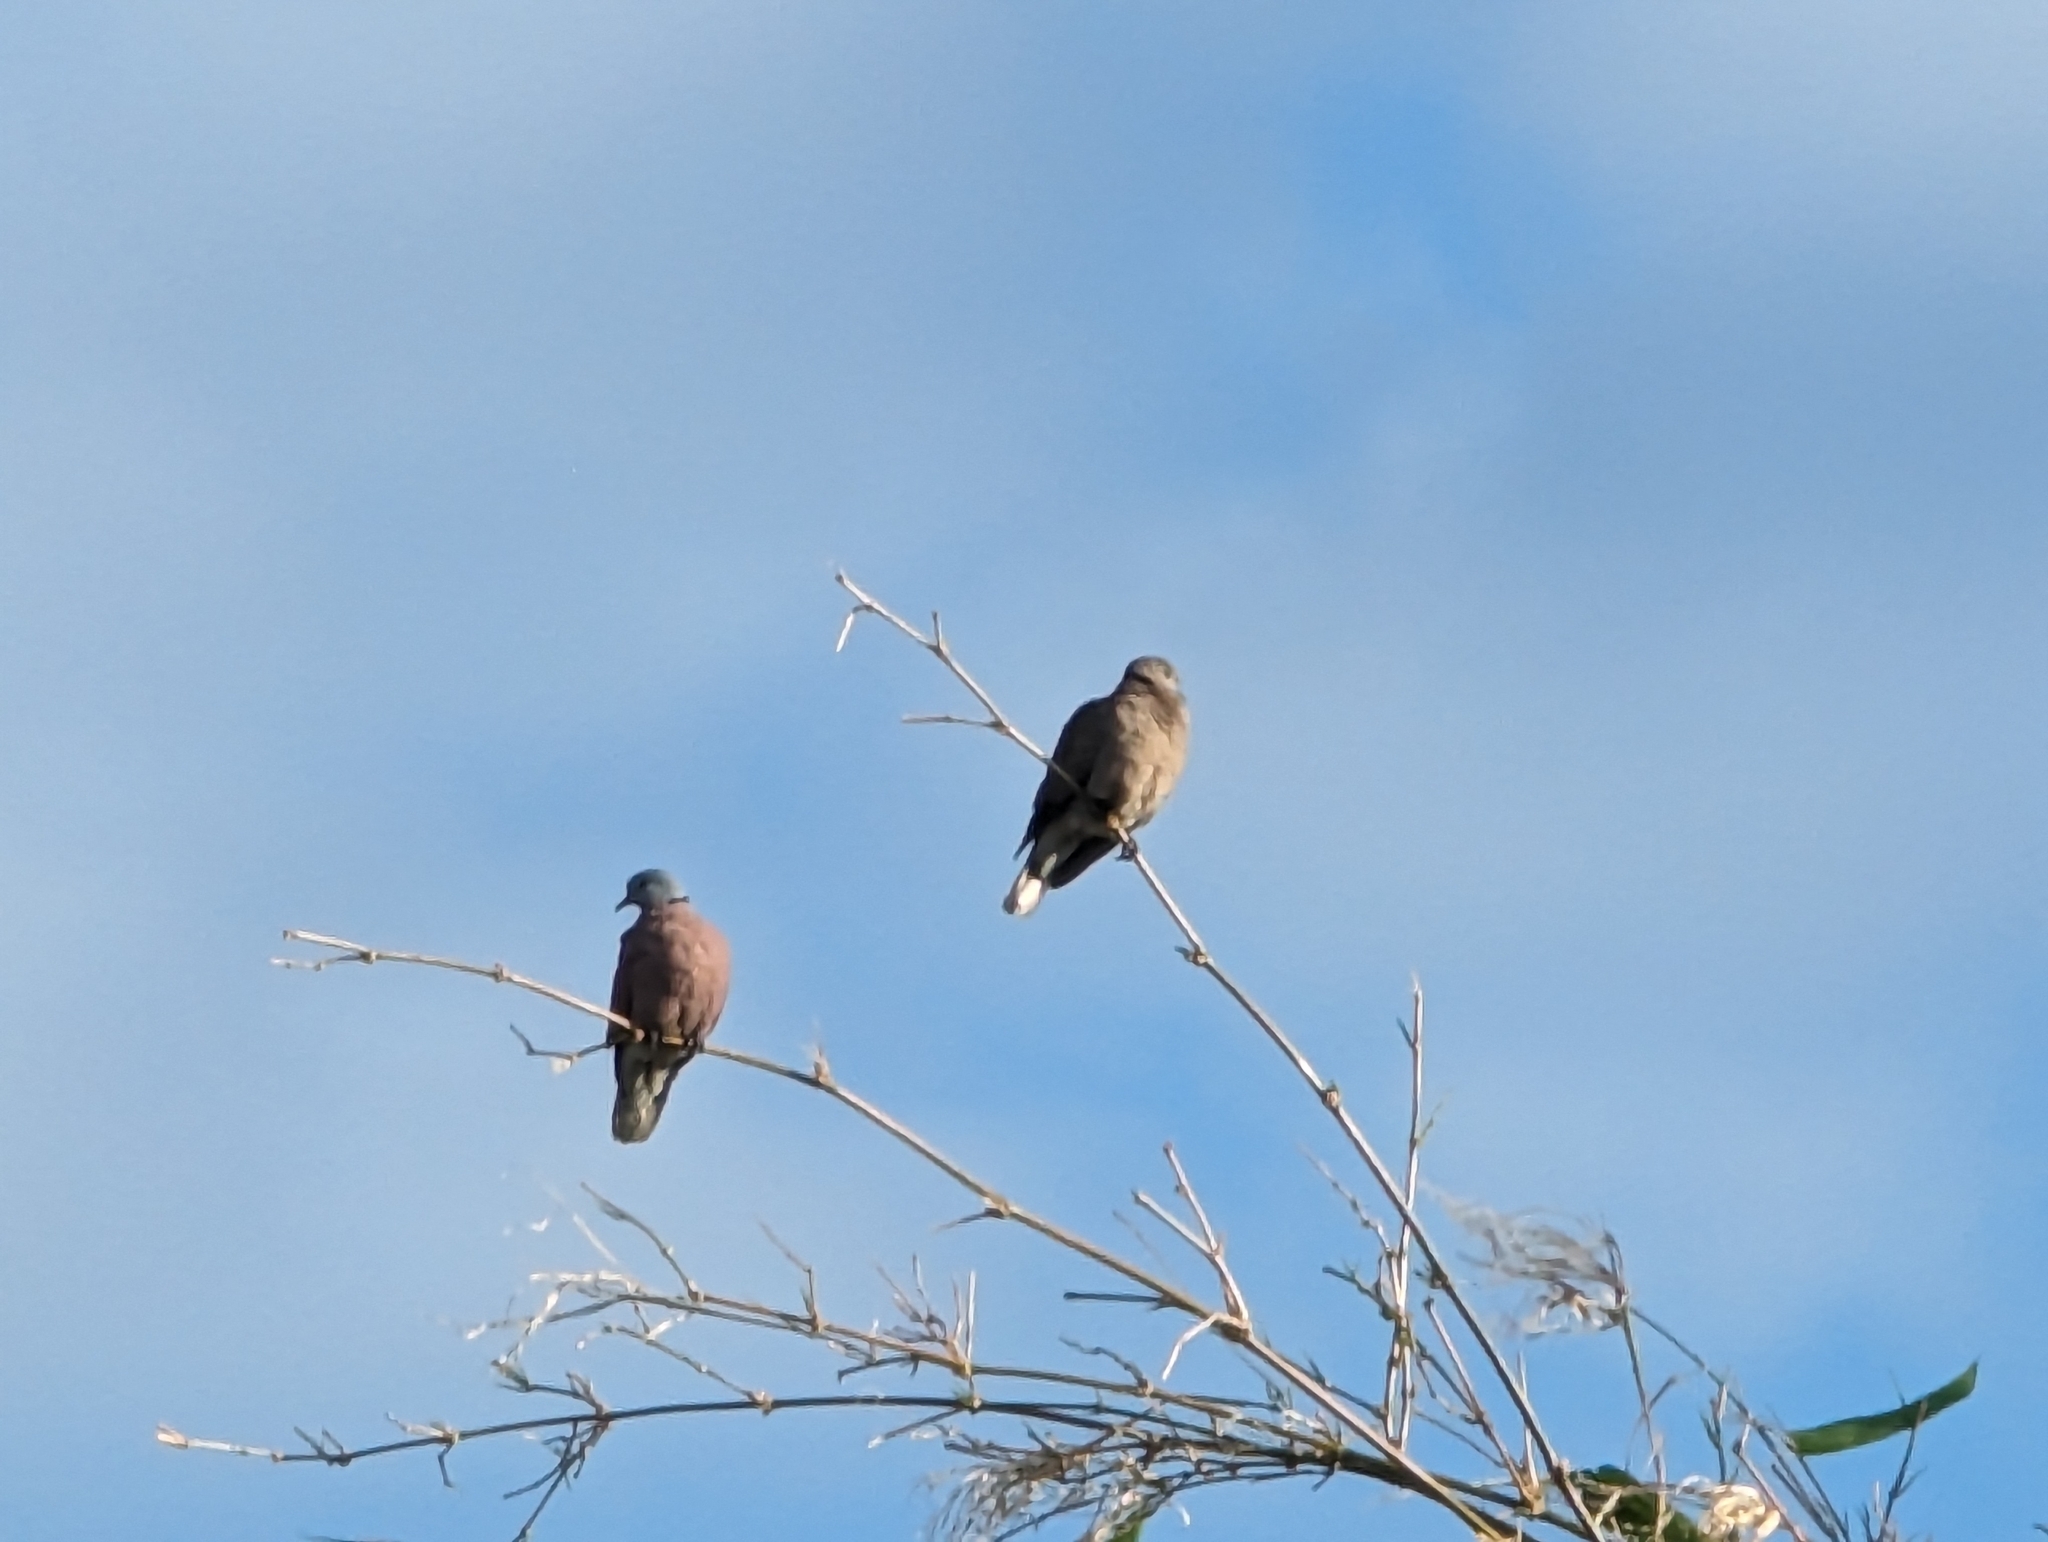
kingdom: Animalia
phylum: Chordata
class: Aves
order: Columbiformes
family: Columbidae
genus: Streptopelia
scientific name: Streptopelia tranquebarica
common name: Red turtle dove
